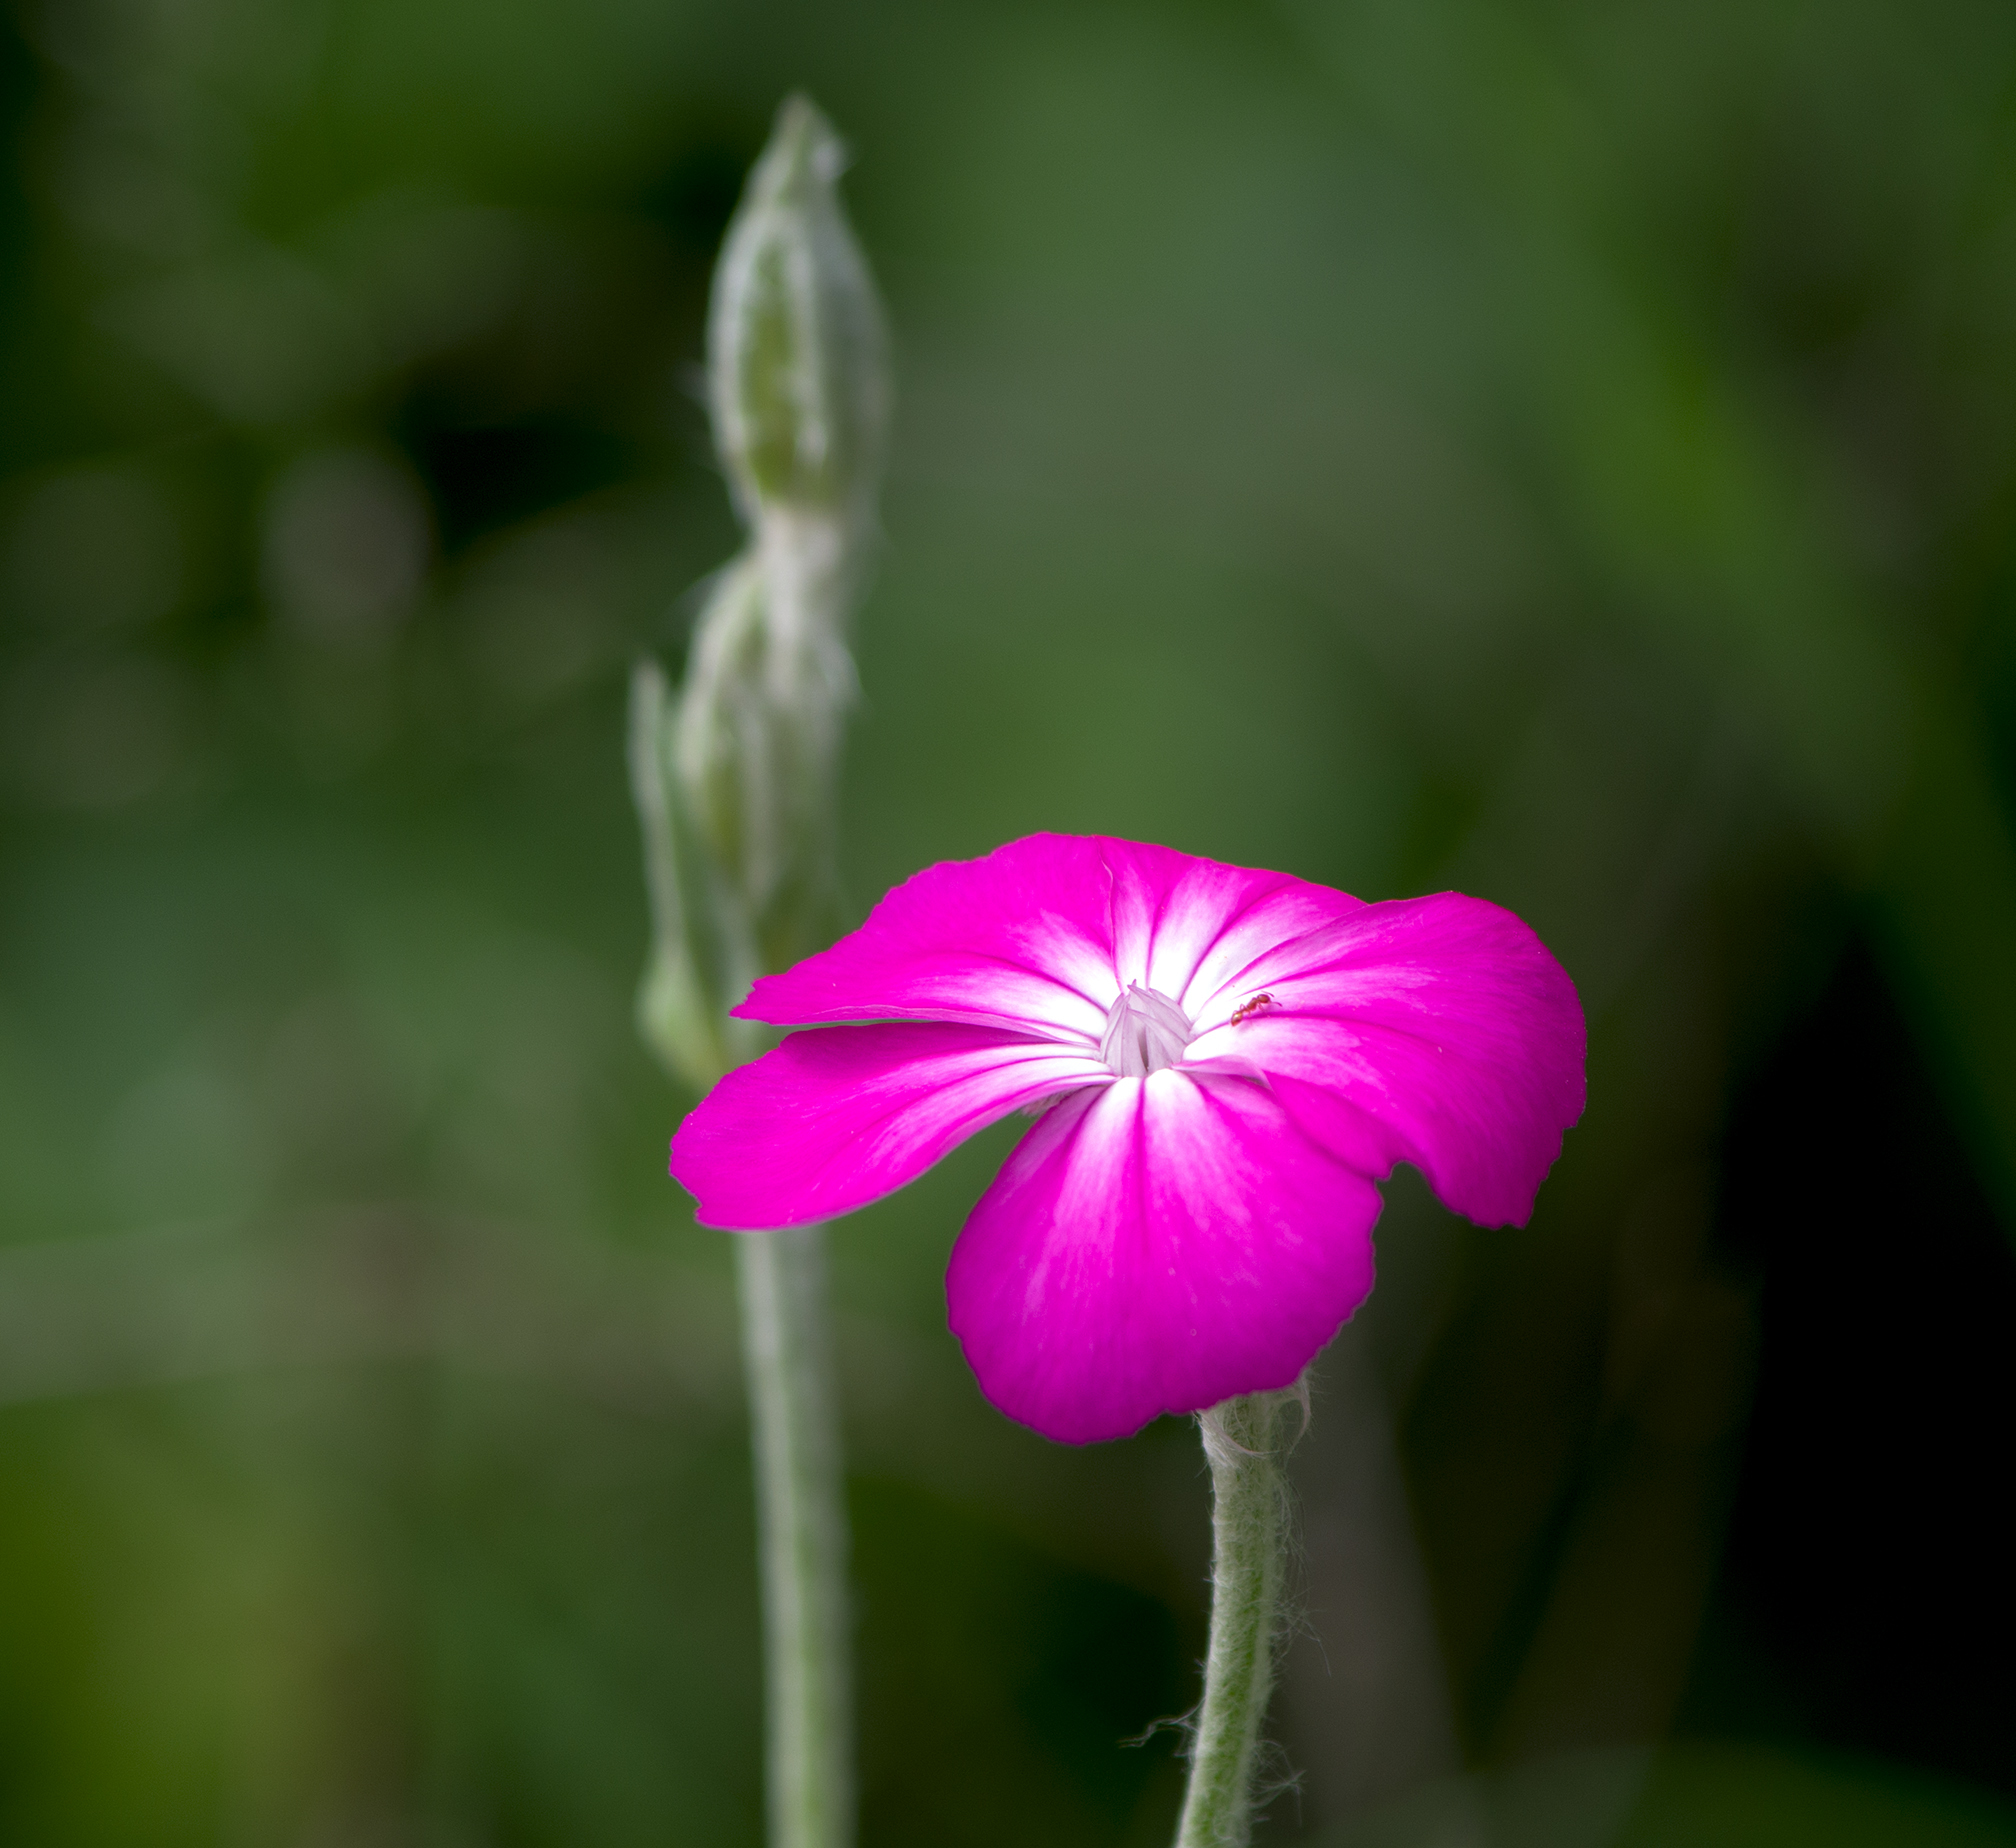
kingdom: Plantae
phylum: Tracheophyta
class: Magnoliopsida
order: Caryophyllales
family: Caryophyllaceae
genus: Silene
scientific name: Silene coronaria
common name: Rose campion
